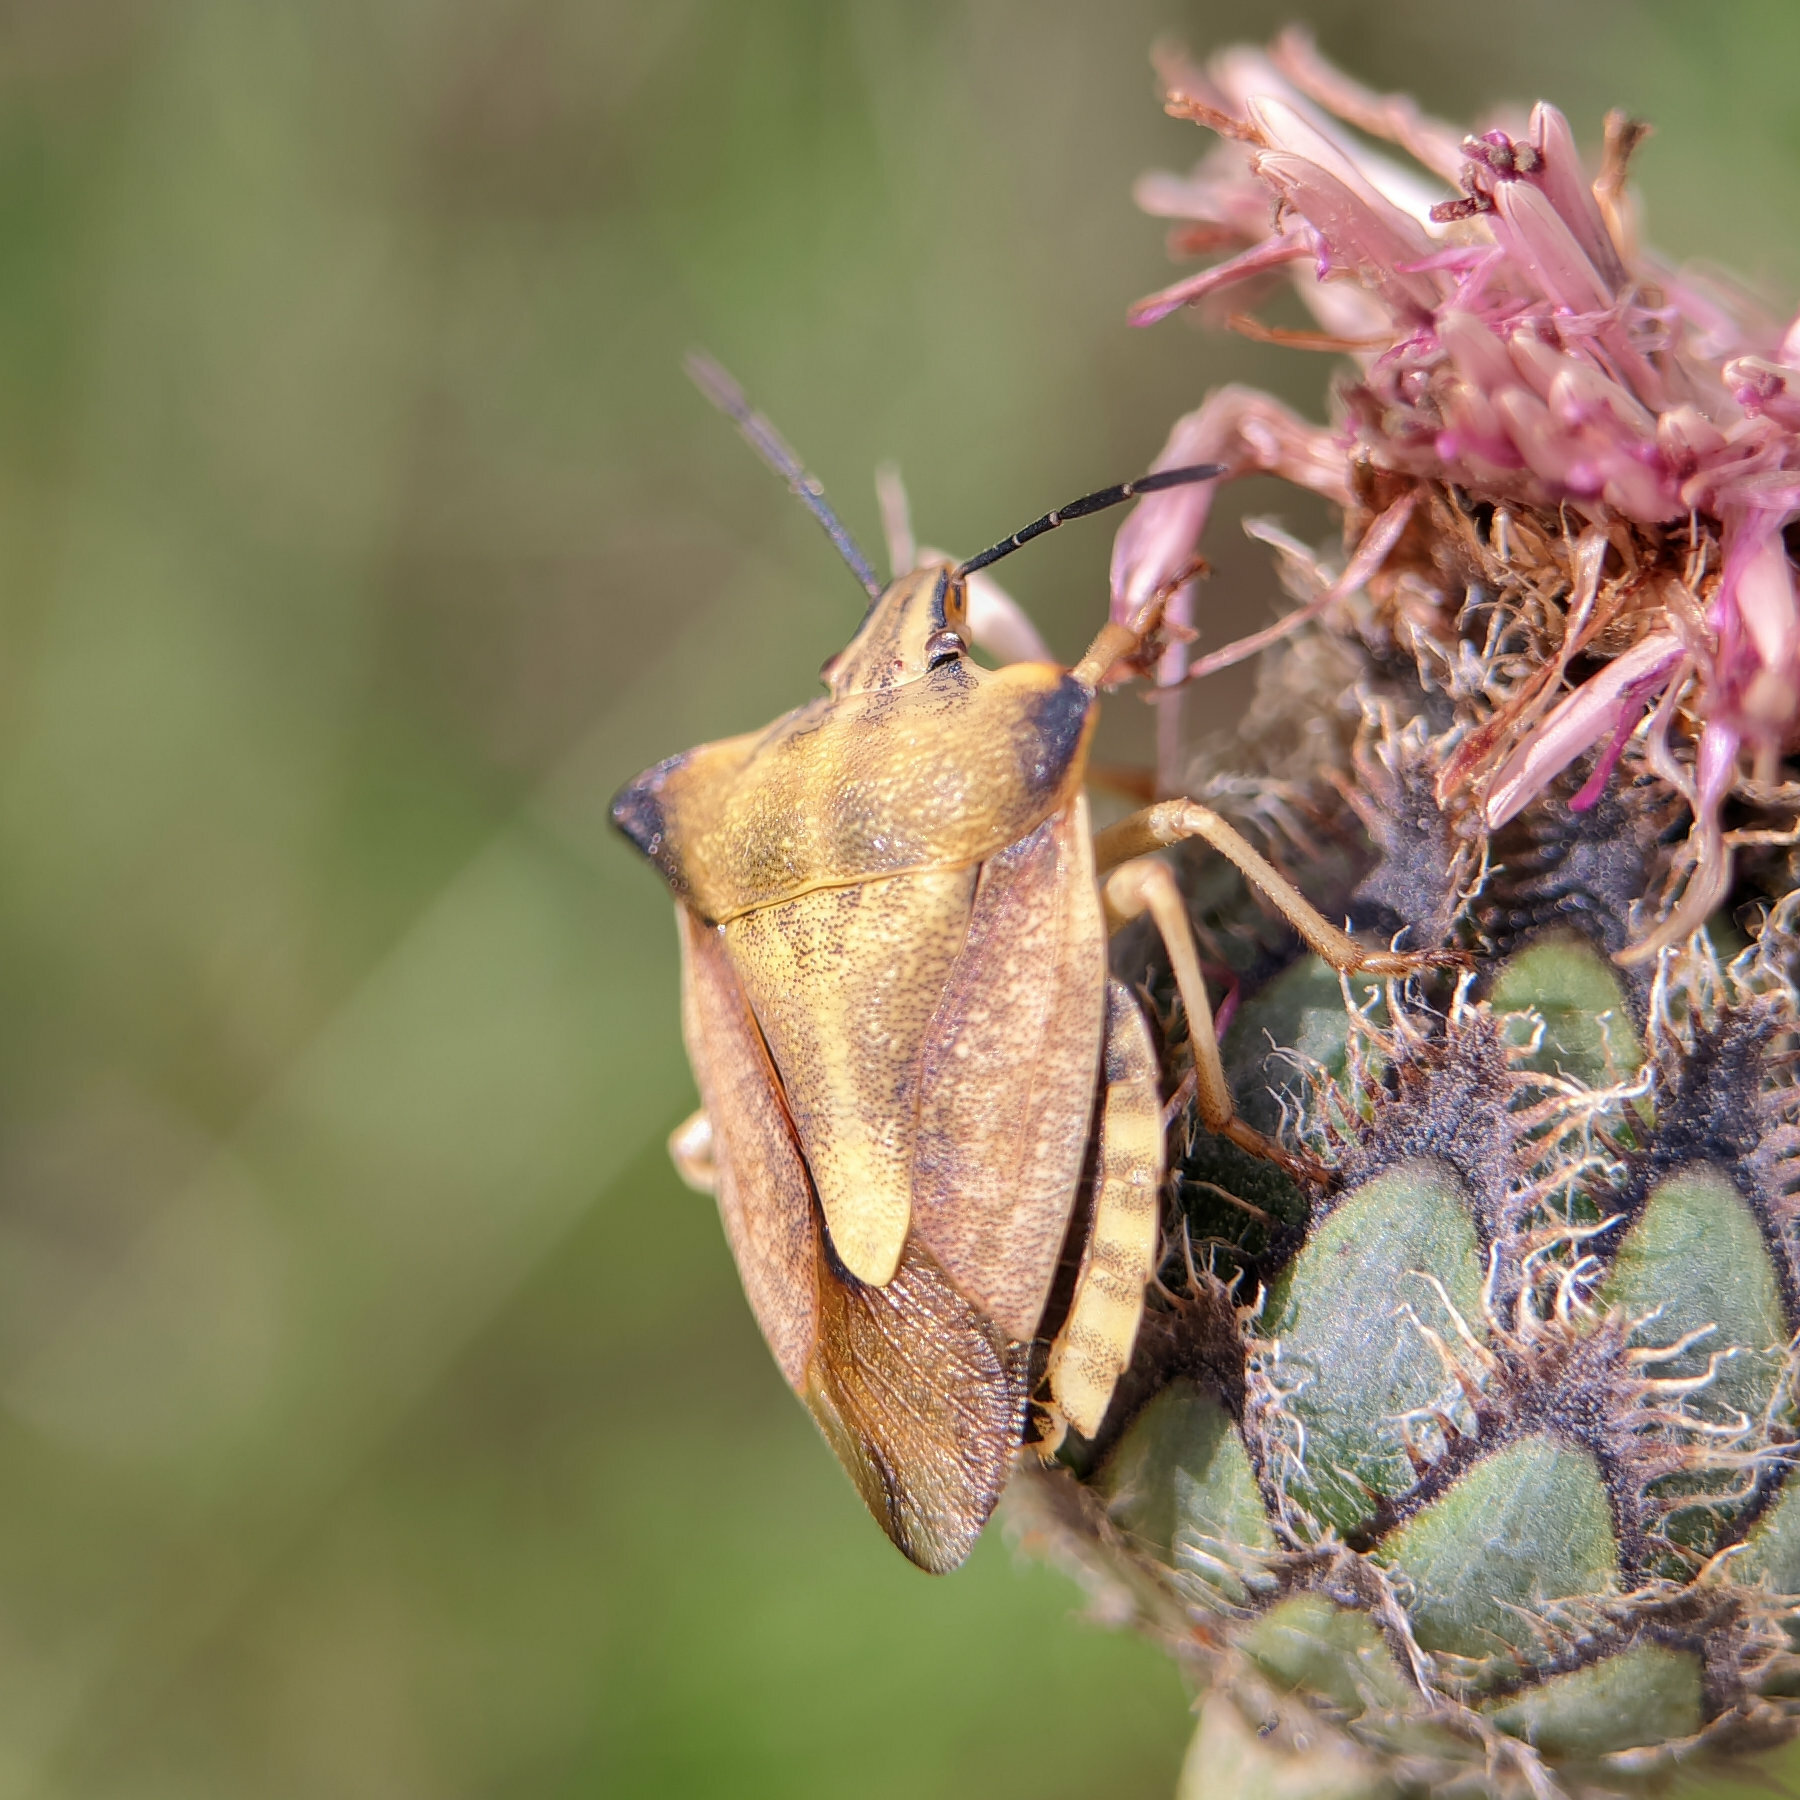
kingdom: Animalia
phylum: Arthropoda
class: Insecta
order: Hemiptera
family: Pentatomidae
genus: Carpocoris
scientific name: Carpocoris fuscispinus
